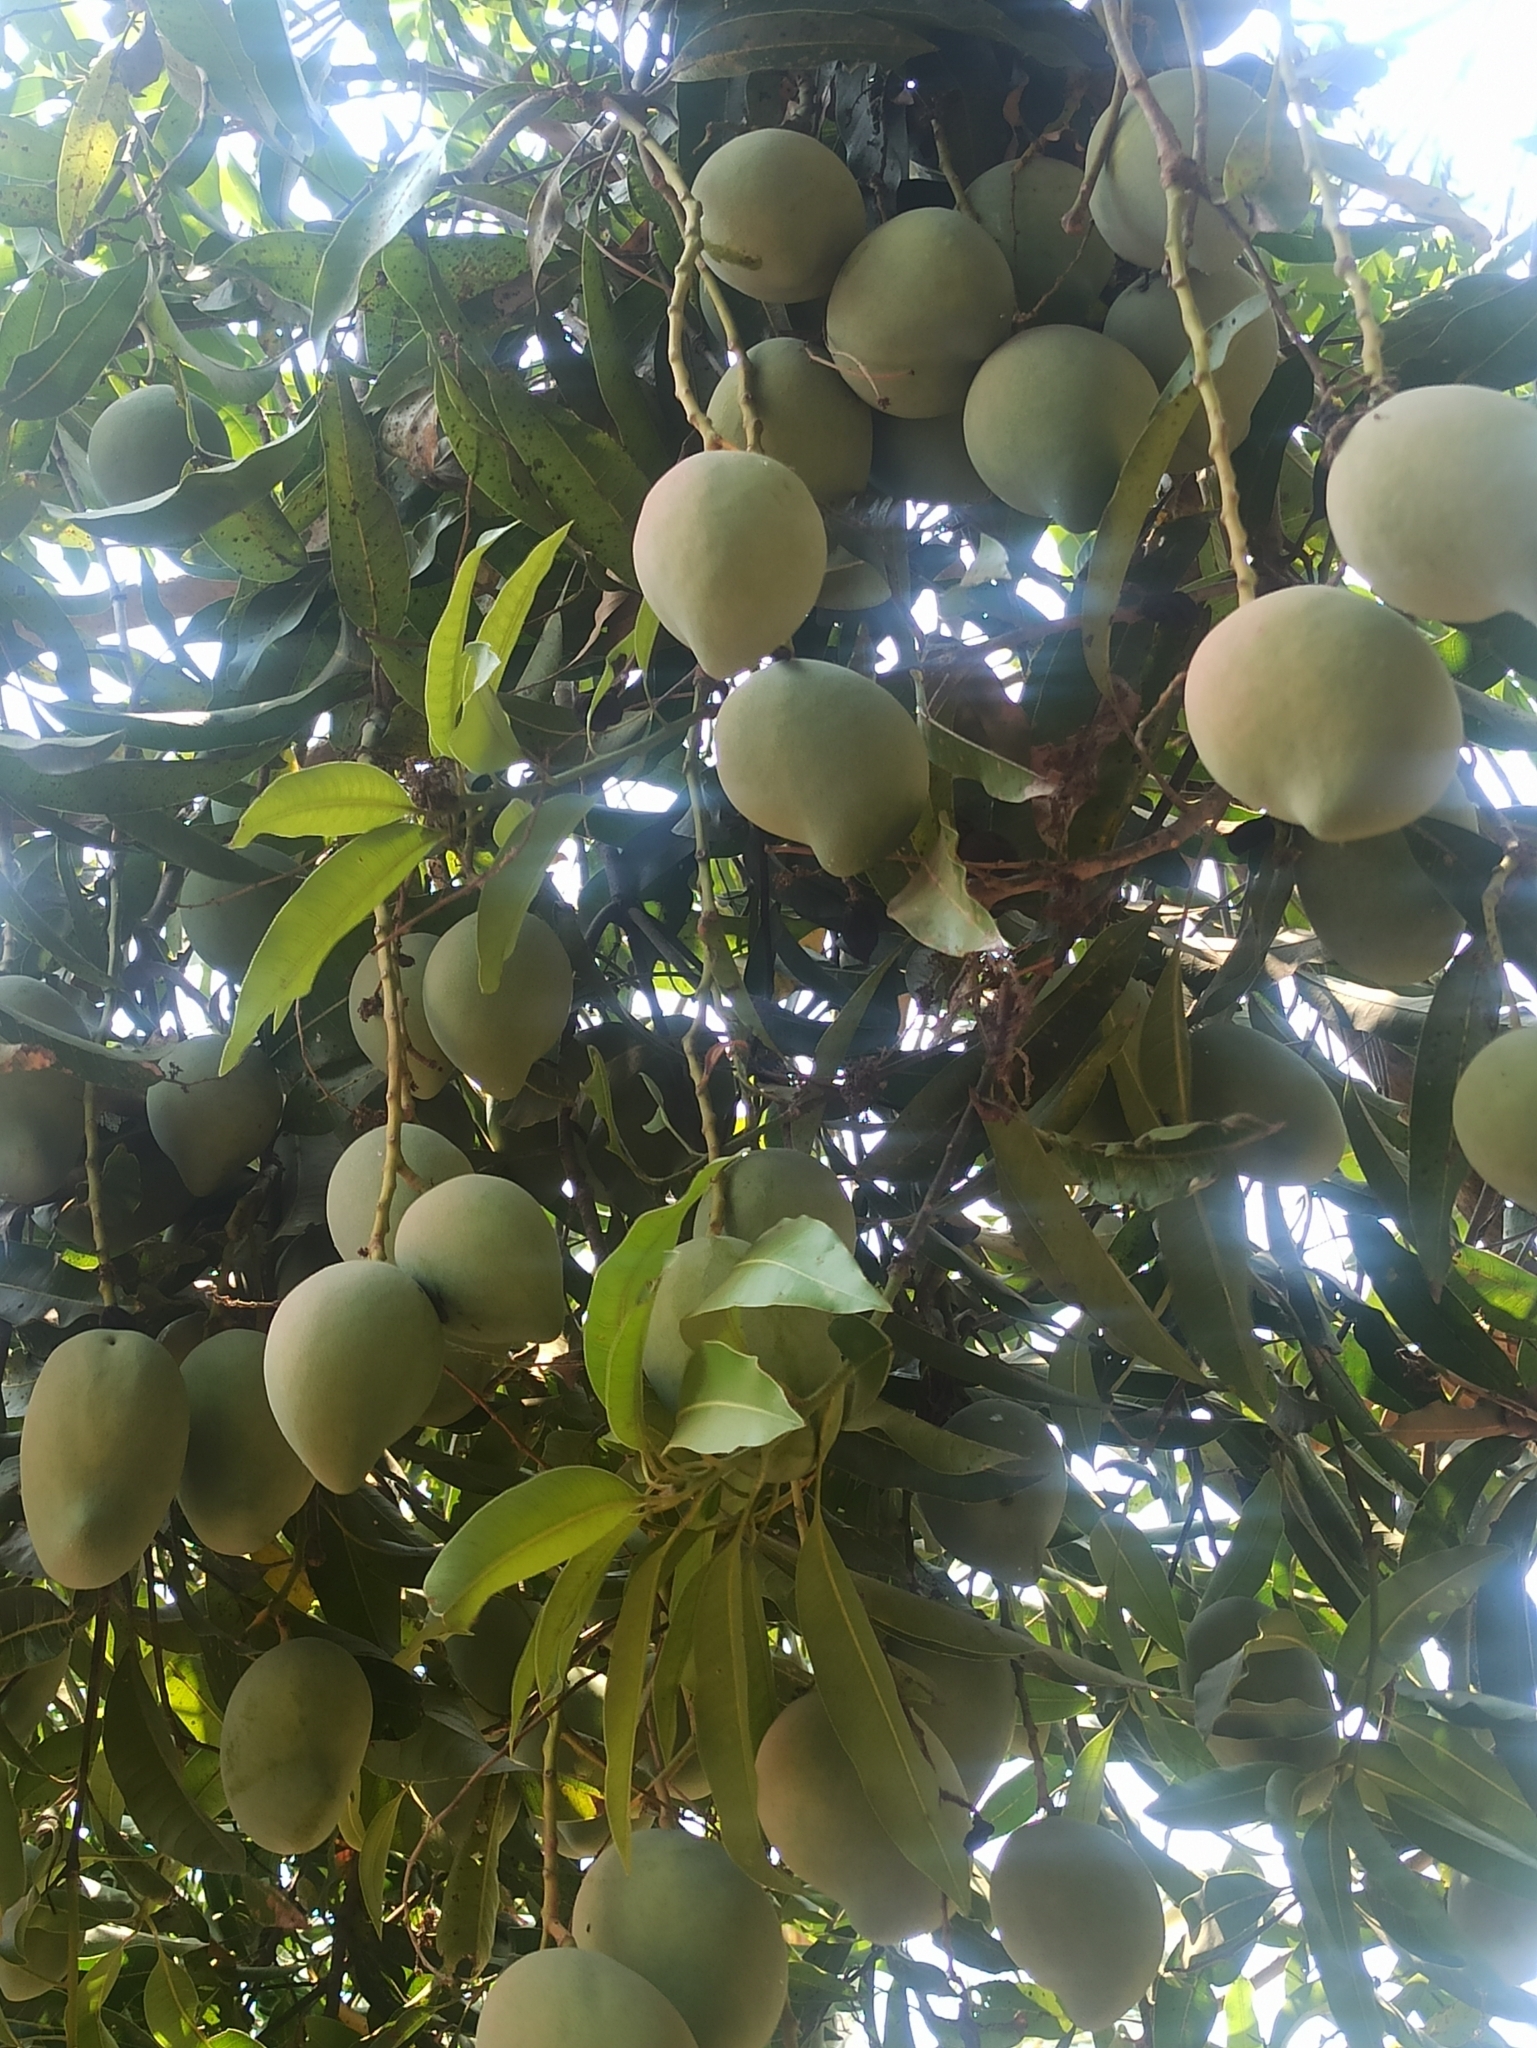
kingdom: Plantae
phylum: Tracheophyta
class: Magnoliopsida
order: Sapindales
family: Anacardiaceae
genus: Mangifera
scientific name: Mangifera indica
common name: Mango
